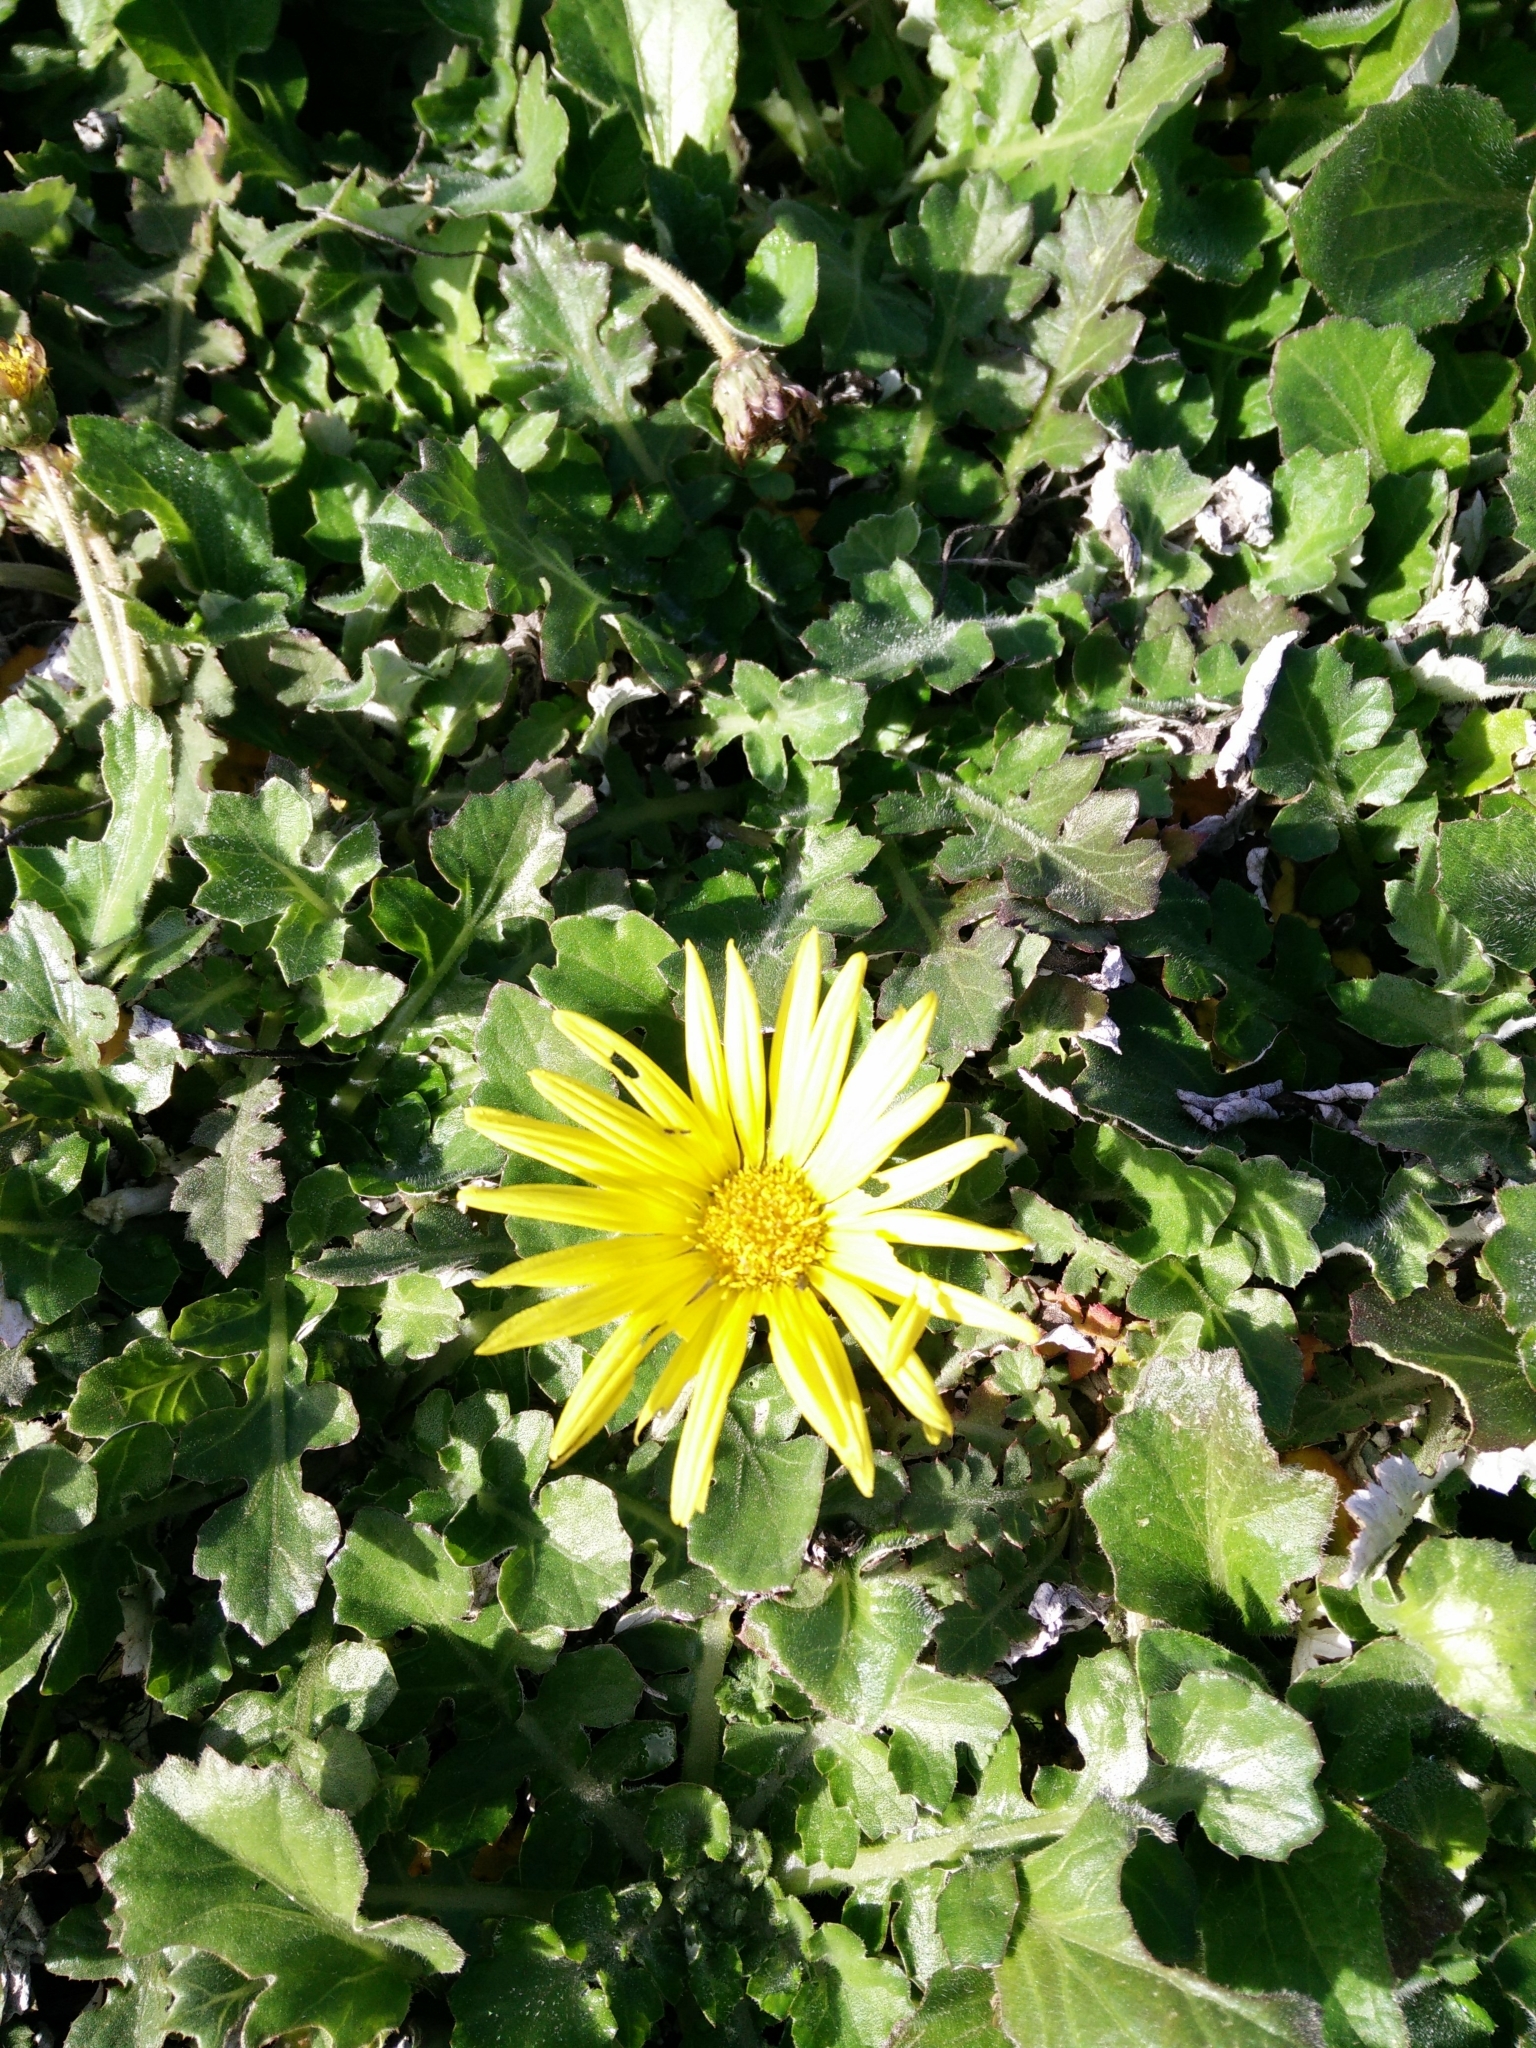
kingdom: Plantae
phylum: Tracheophyta
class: Magnoliopsida
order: Asterales
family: Asteraceae
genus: Arctotheca
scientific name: Arctotheca prostrata
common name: Capeweed
